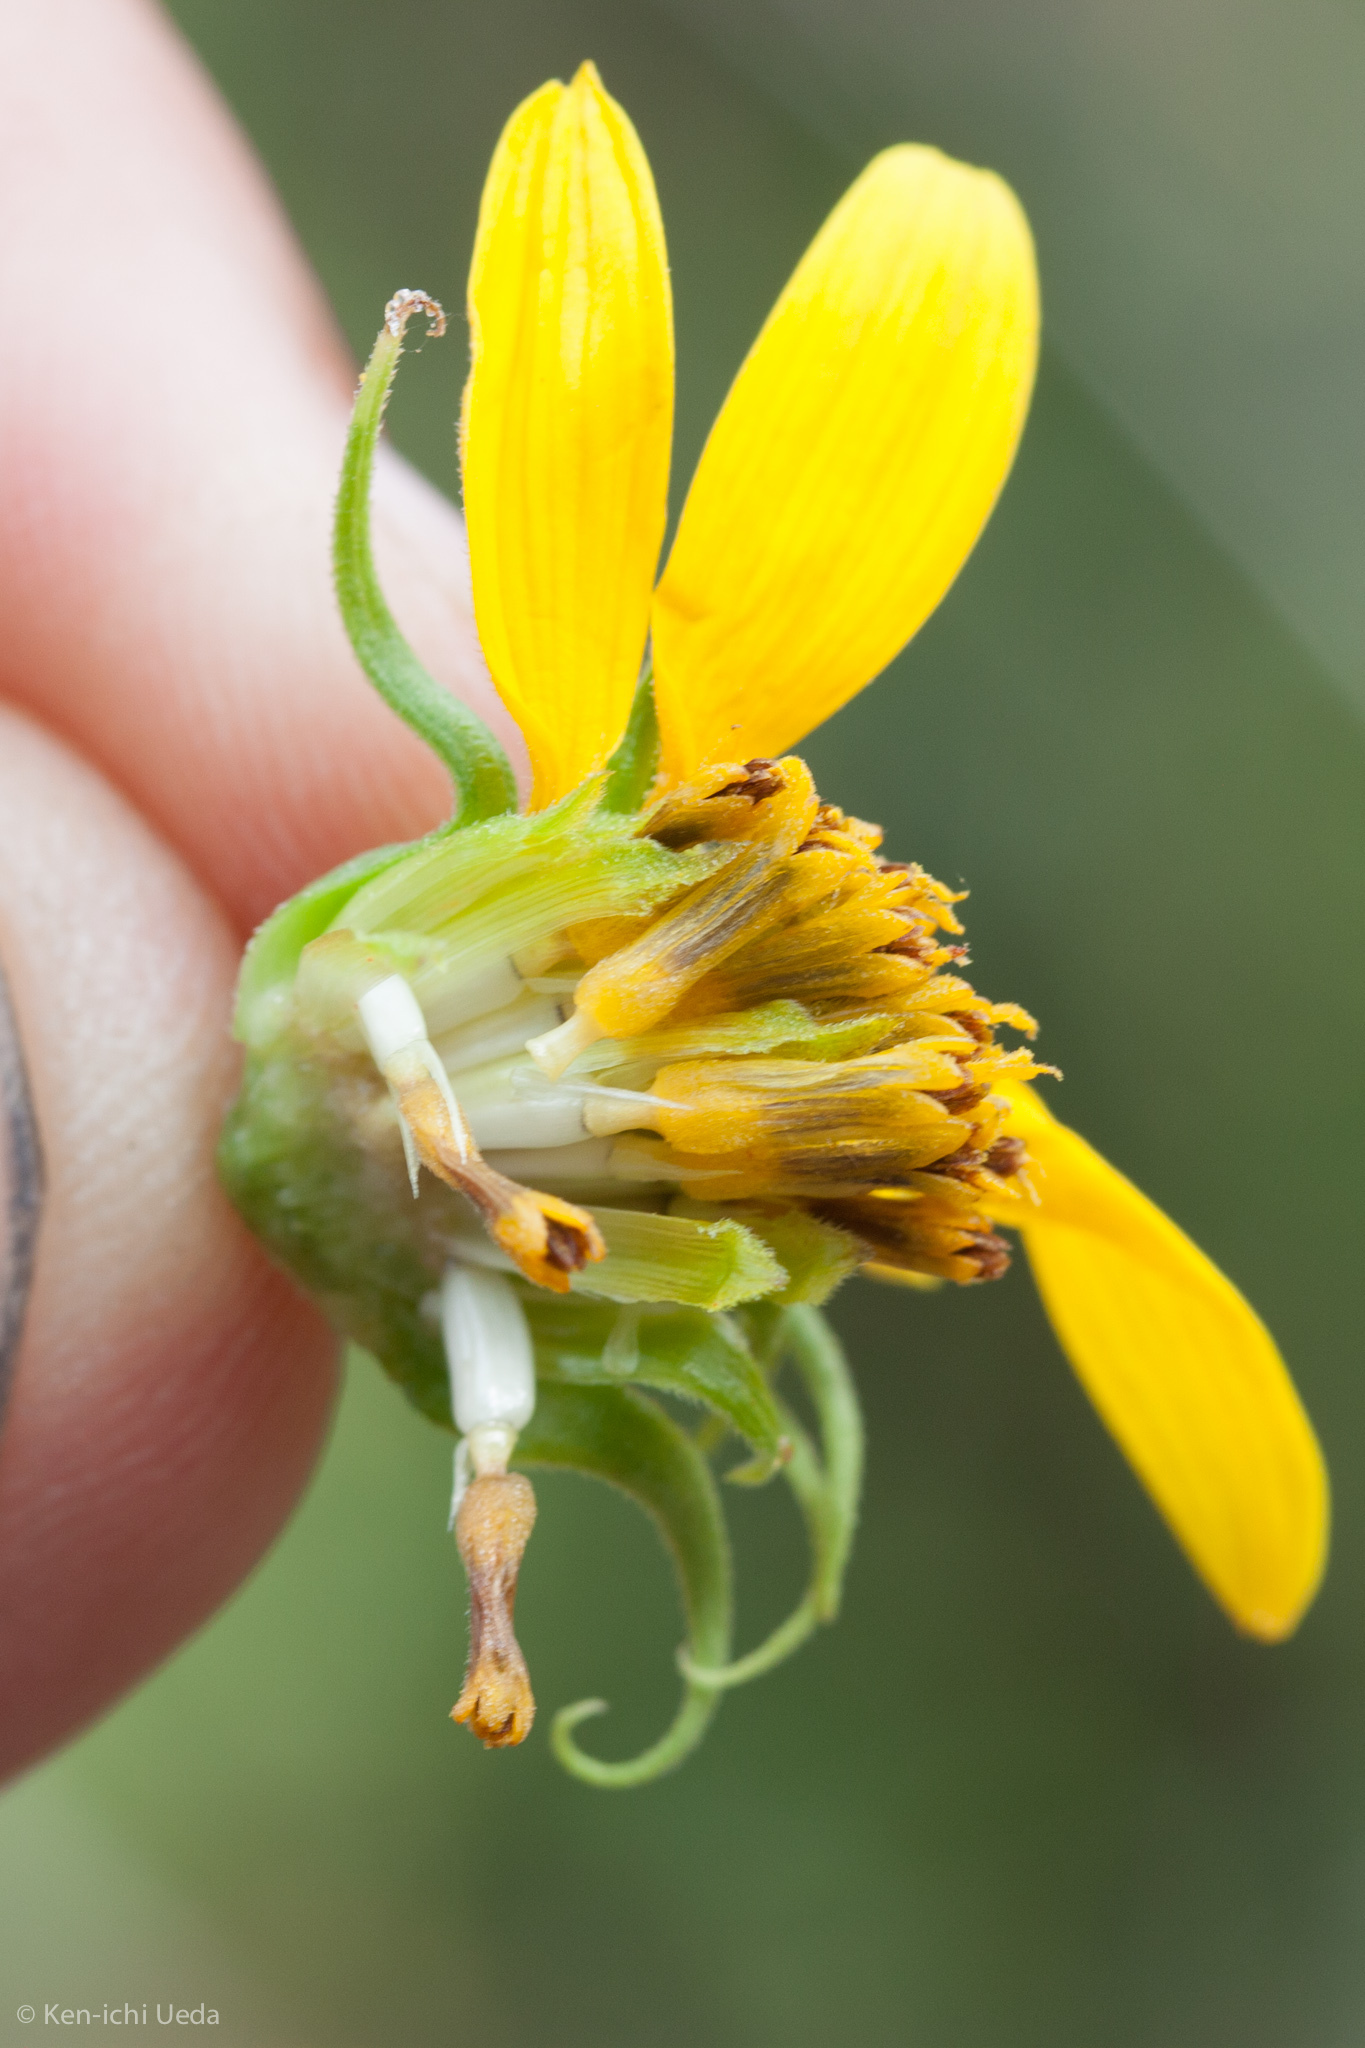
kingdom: Plantae
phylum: Tracheophyta
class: Magnoliopsida
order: Asterales
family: Asteraceae
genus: Helianthus
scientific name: Helianthus californicus
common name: California sunflower
